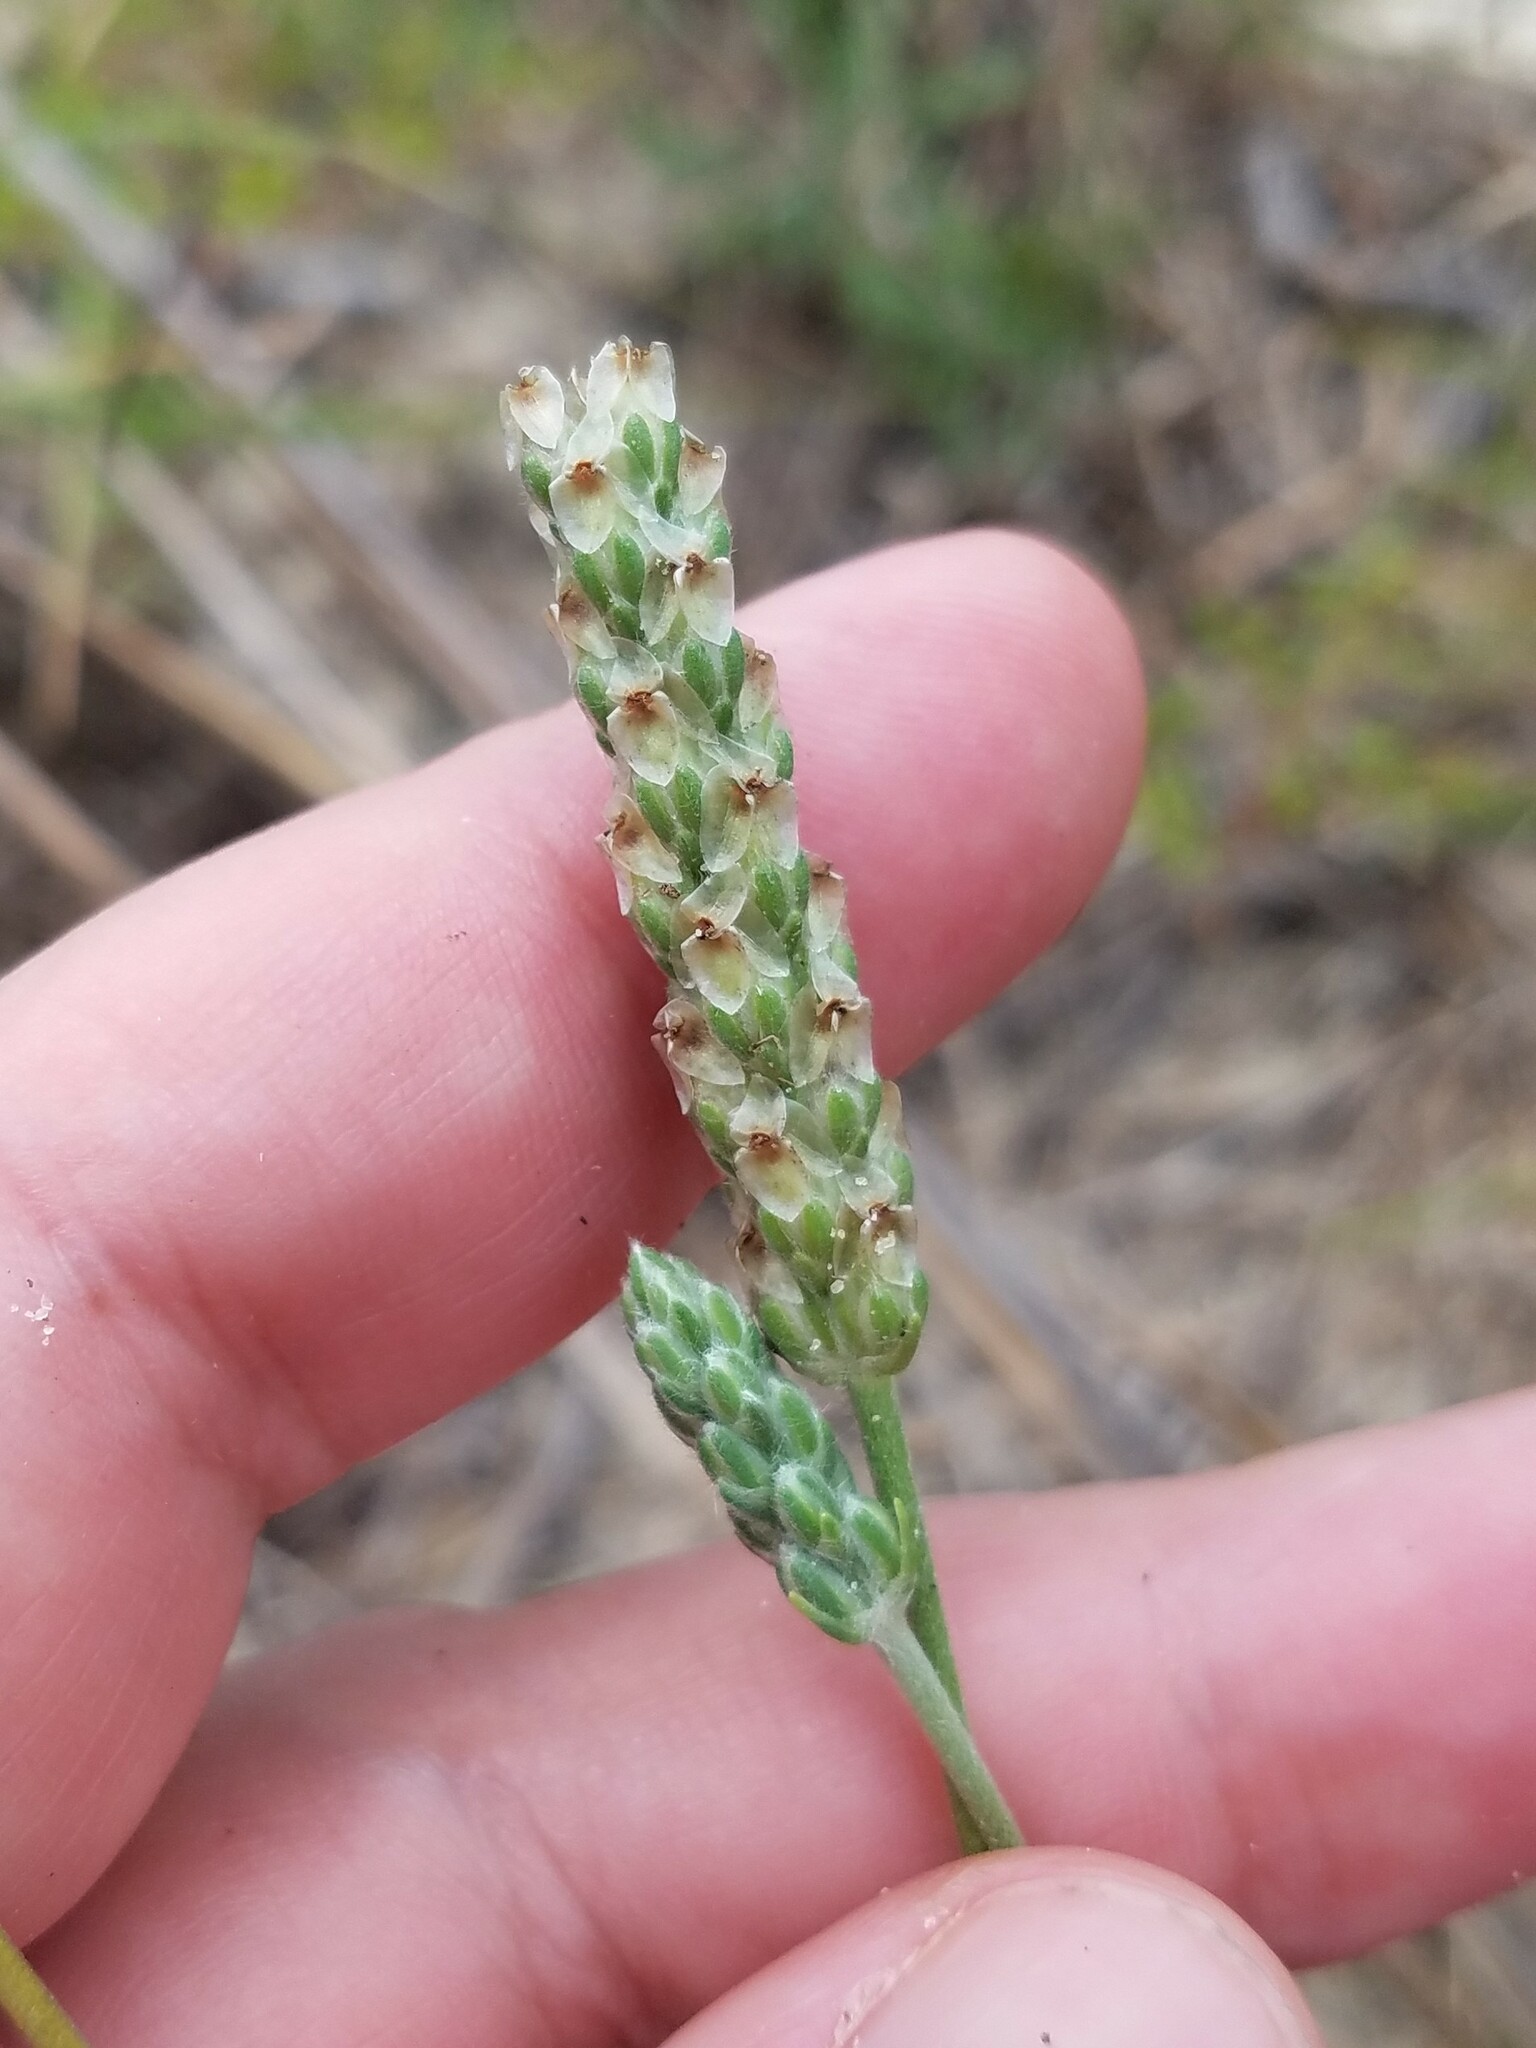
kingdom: Plantae
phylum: Tracheophyta
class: Magnoliopsida
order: Lamiales
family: Plantaginaceae
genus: Plantago
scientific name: Plantago wrightiana
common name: Wright's plantain
